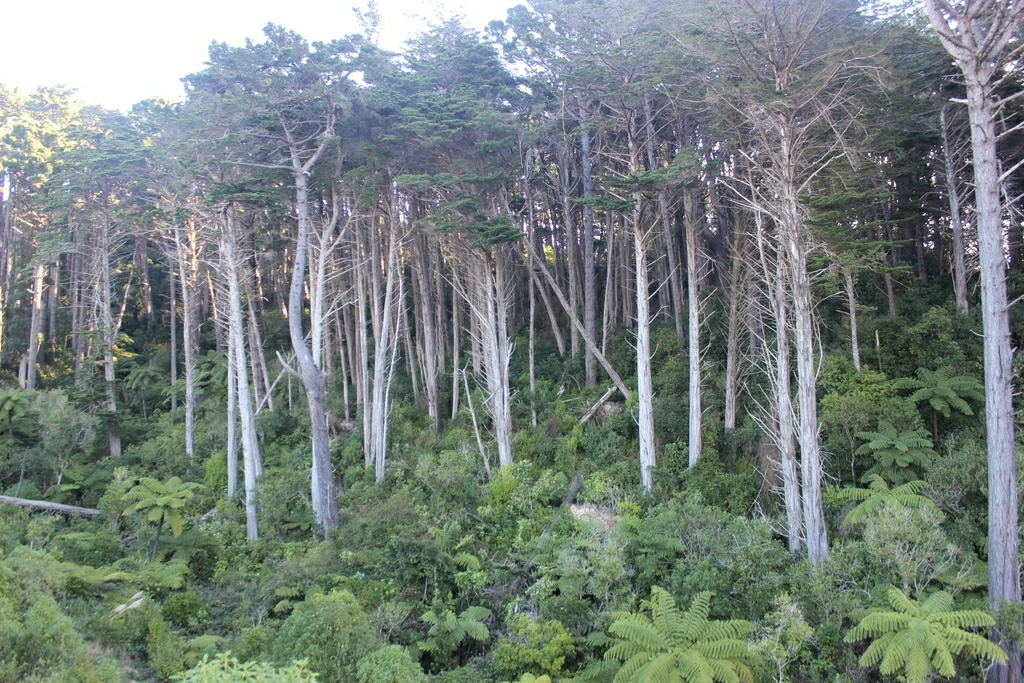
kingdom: Plantae
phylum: Tracheophyta
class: Polypodiopsida
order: Cyatheales
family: Cyatheaceae
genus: Sphaeropteris
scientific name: Sphaeropteris medullaris
